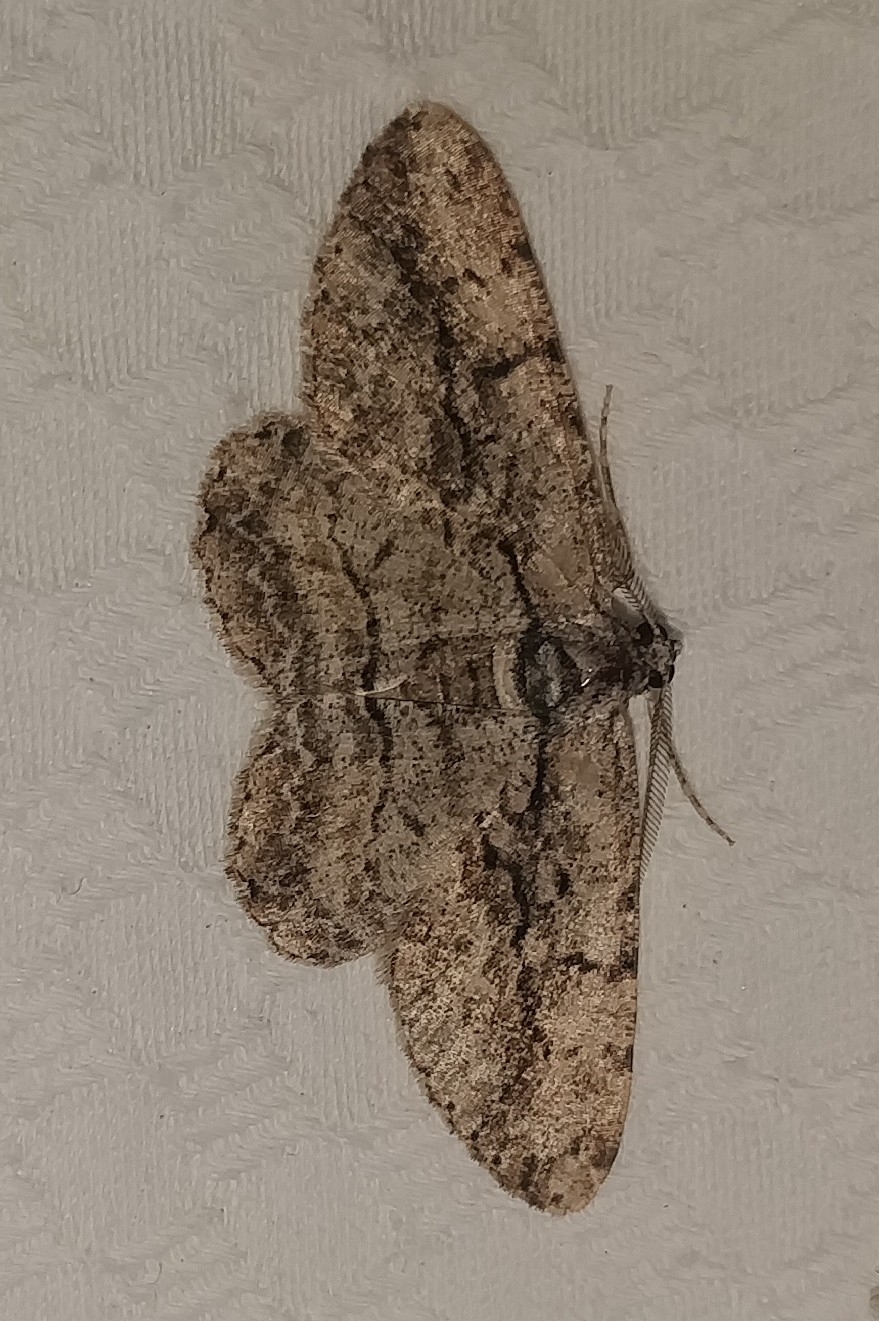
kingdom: Animalia
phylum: Arthropoda
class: Insecta
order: Lepidoptera
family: Geometridae
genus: Anavitrinella
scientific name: Anavitrinella pampinaria
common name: Common gray
